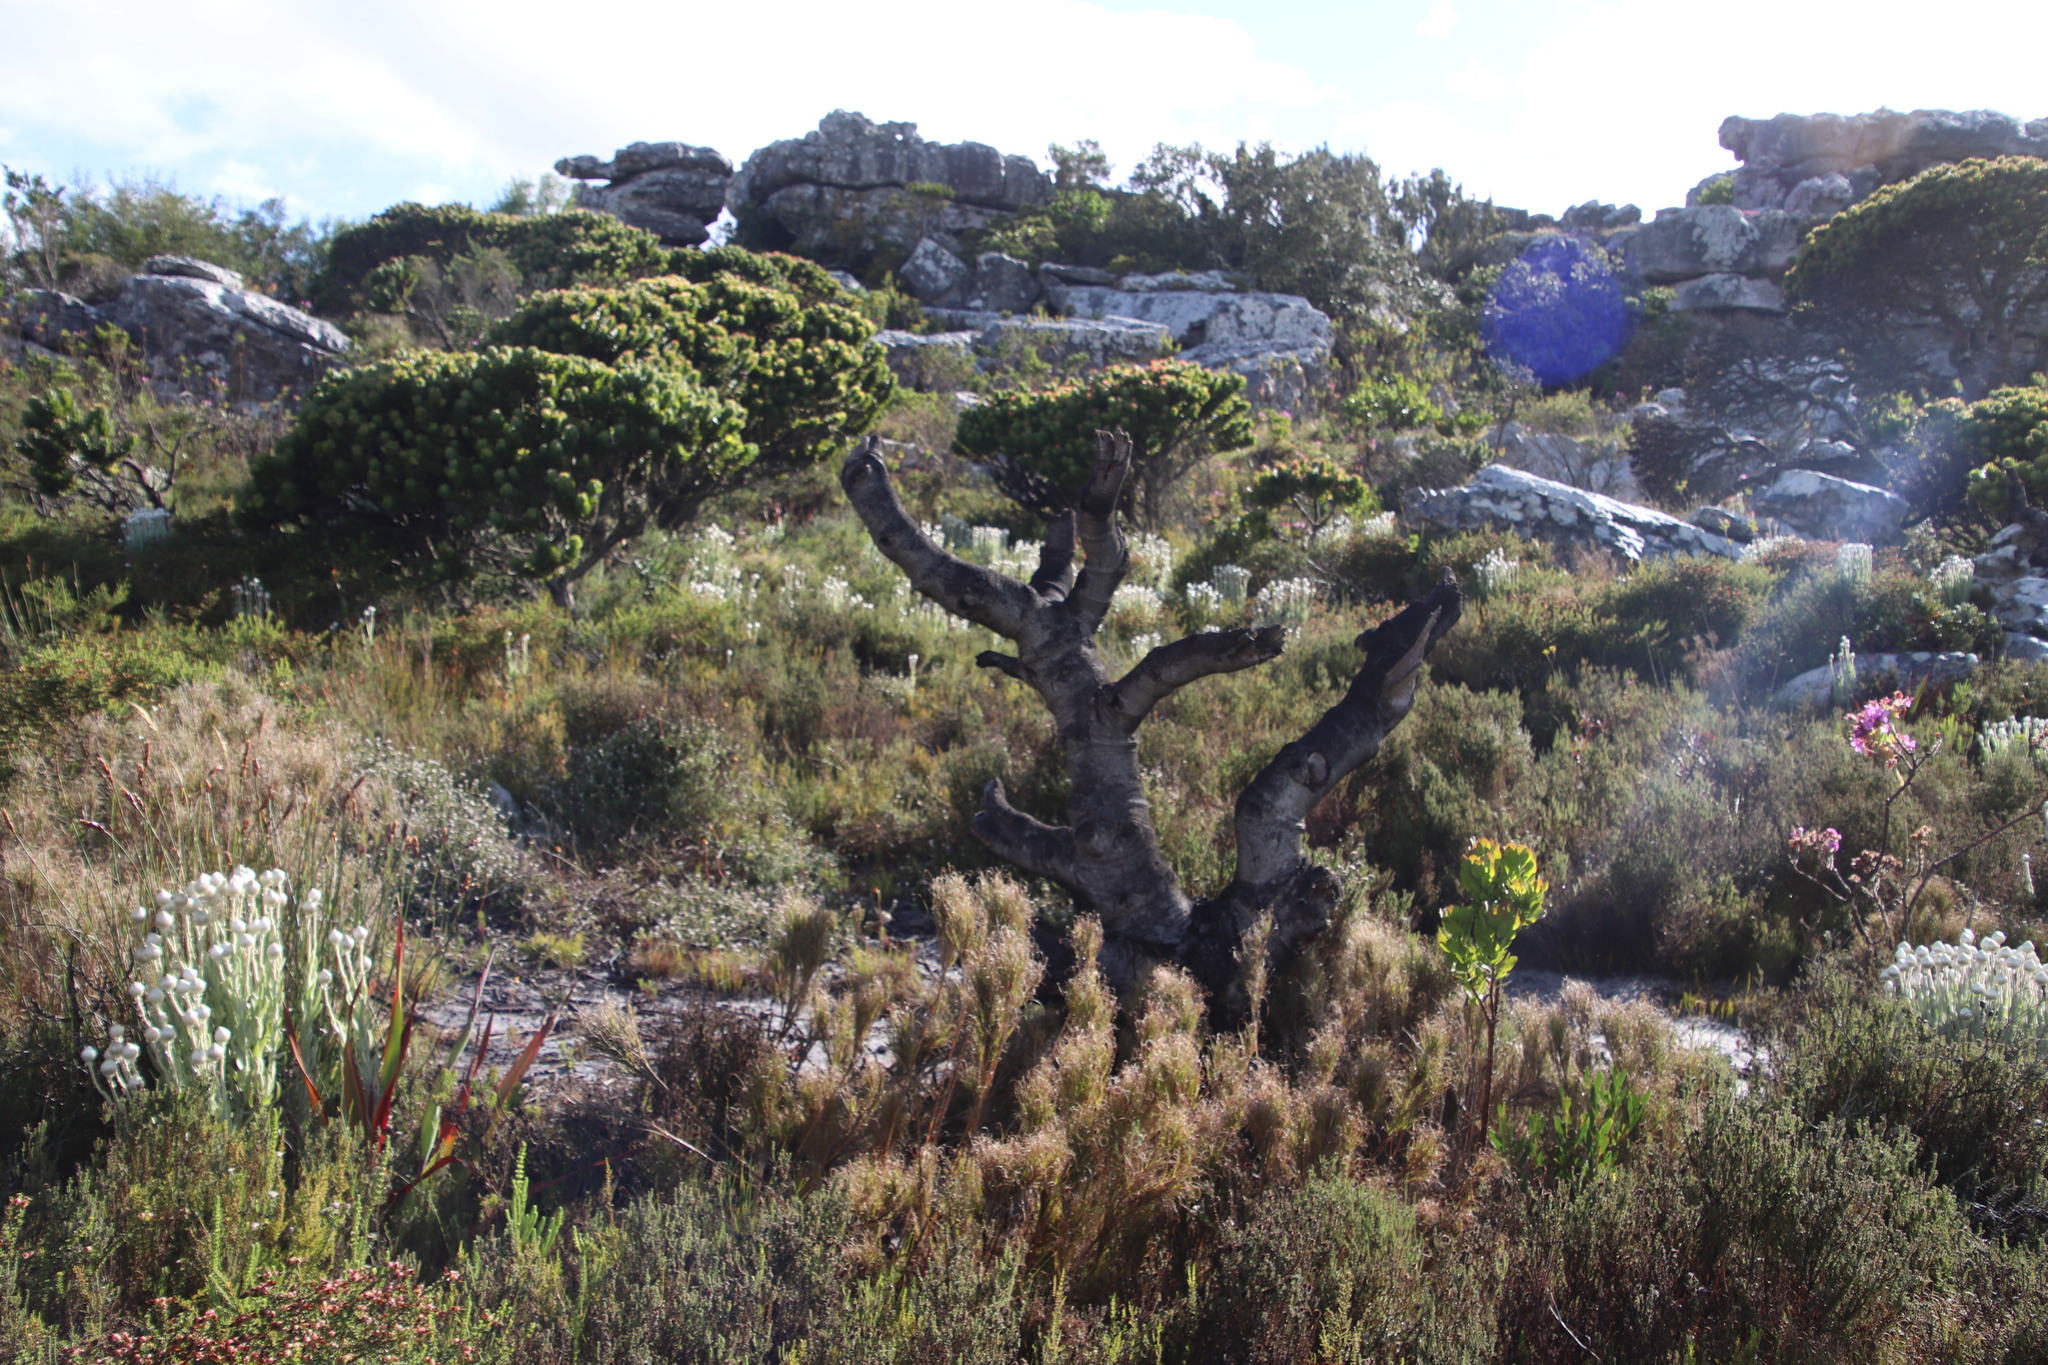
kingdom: Plantae
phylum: Tracheophyta
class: Magnoliopsida
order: Proteales
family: Proteaceae
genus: Mimetes
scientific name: Mimetes fimbriifolius
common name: Fringed bottlebrush
